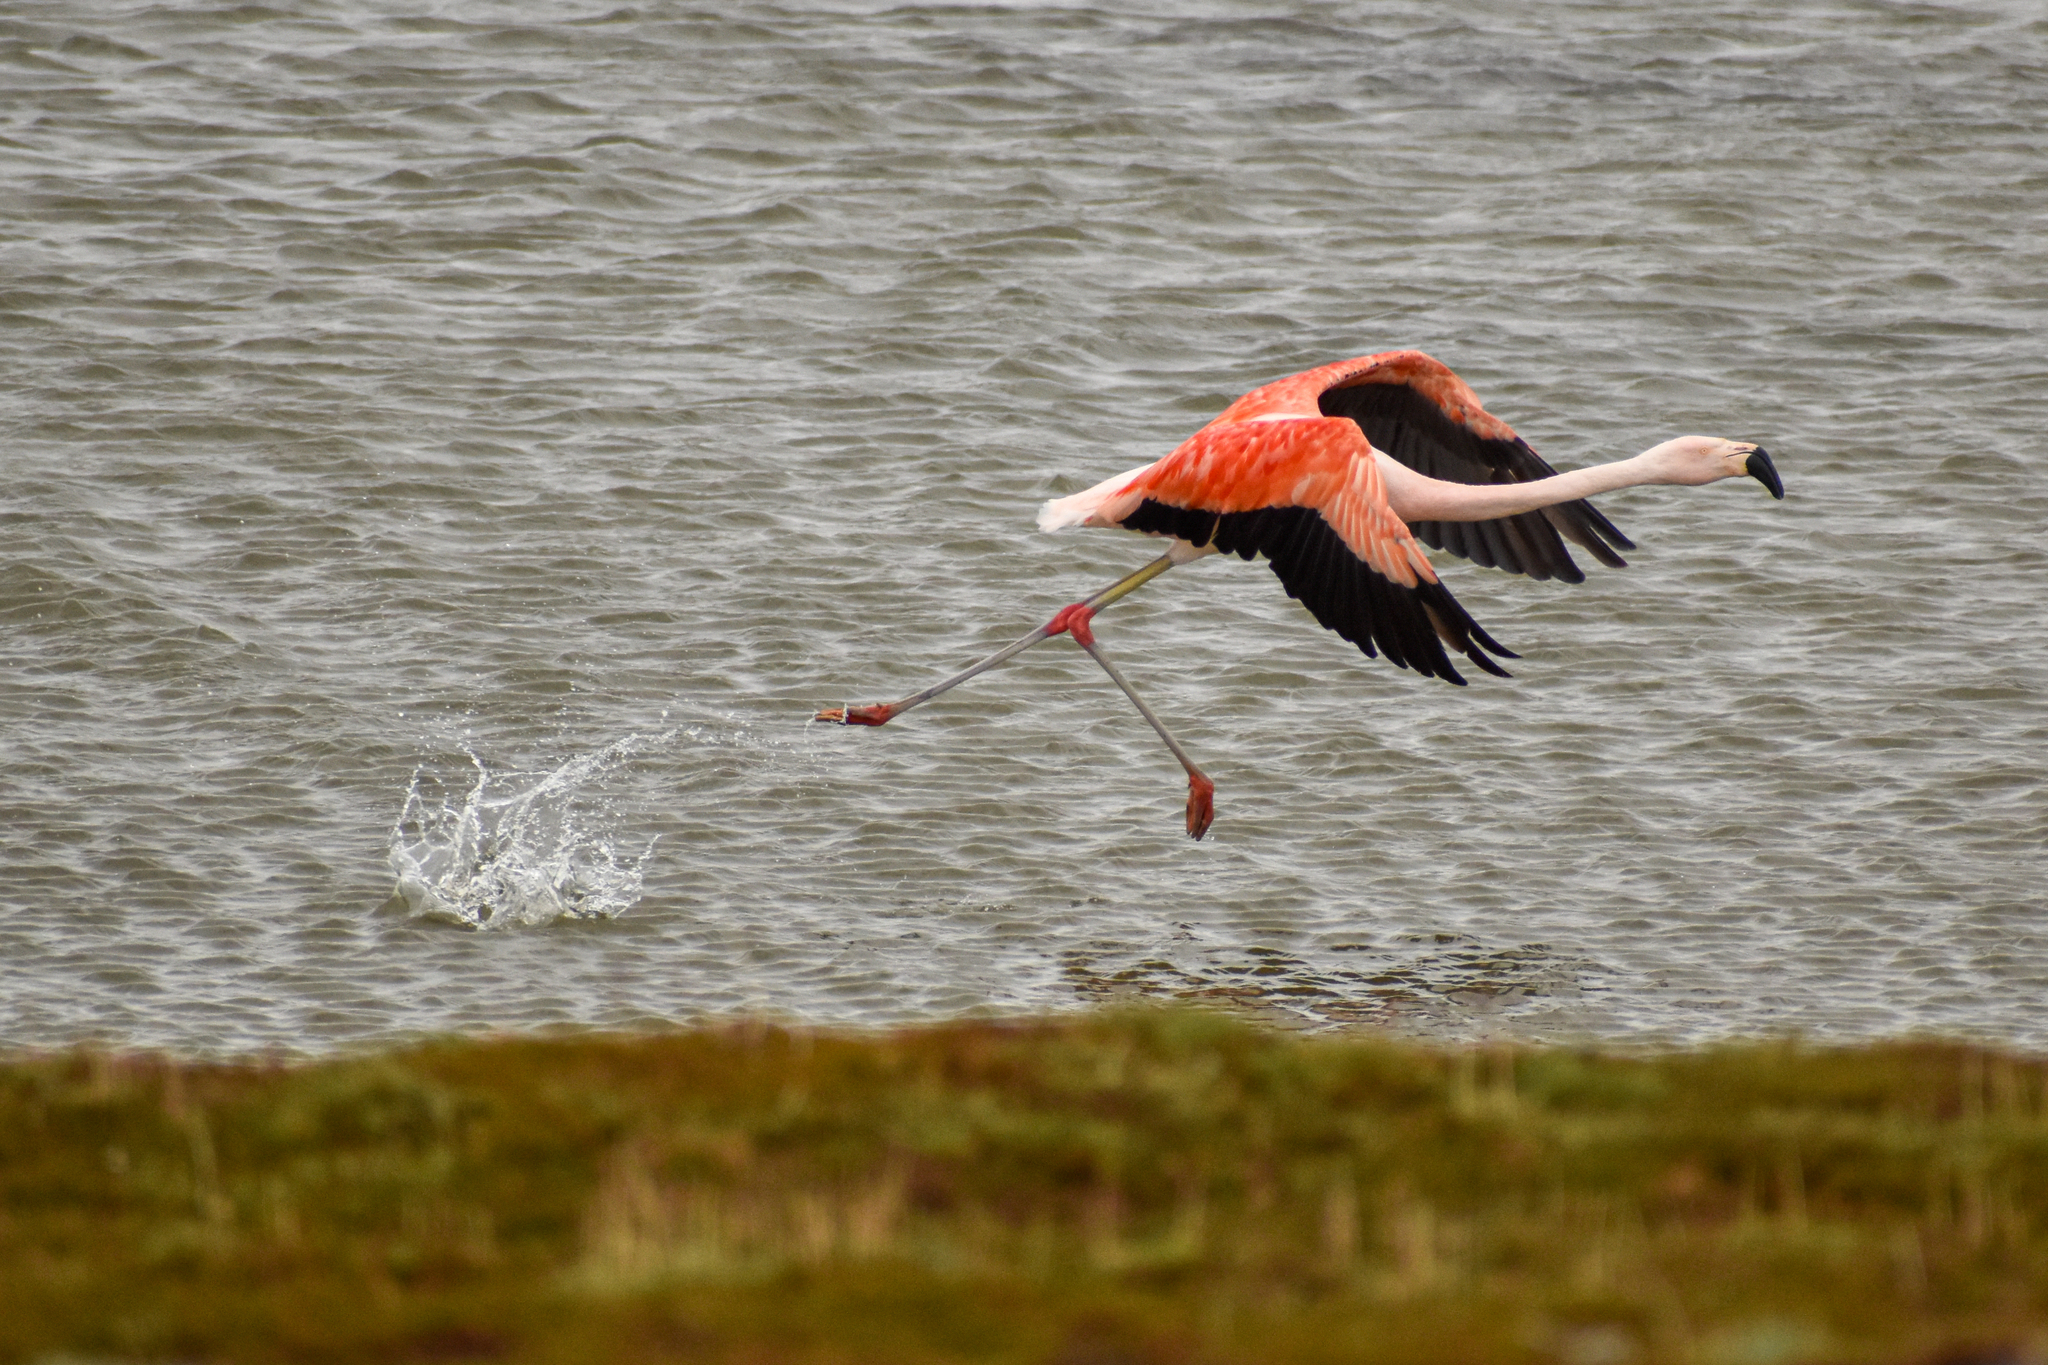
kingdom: Animalia
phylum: Chordata
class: Aves
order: Phoenicopteriformes
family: Phoenicopteridae
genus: Phoenicopterus
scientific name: Phoenicopterus chilensis
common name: Chilean flamingo
